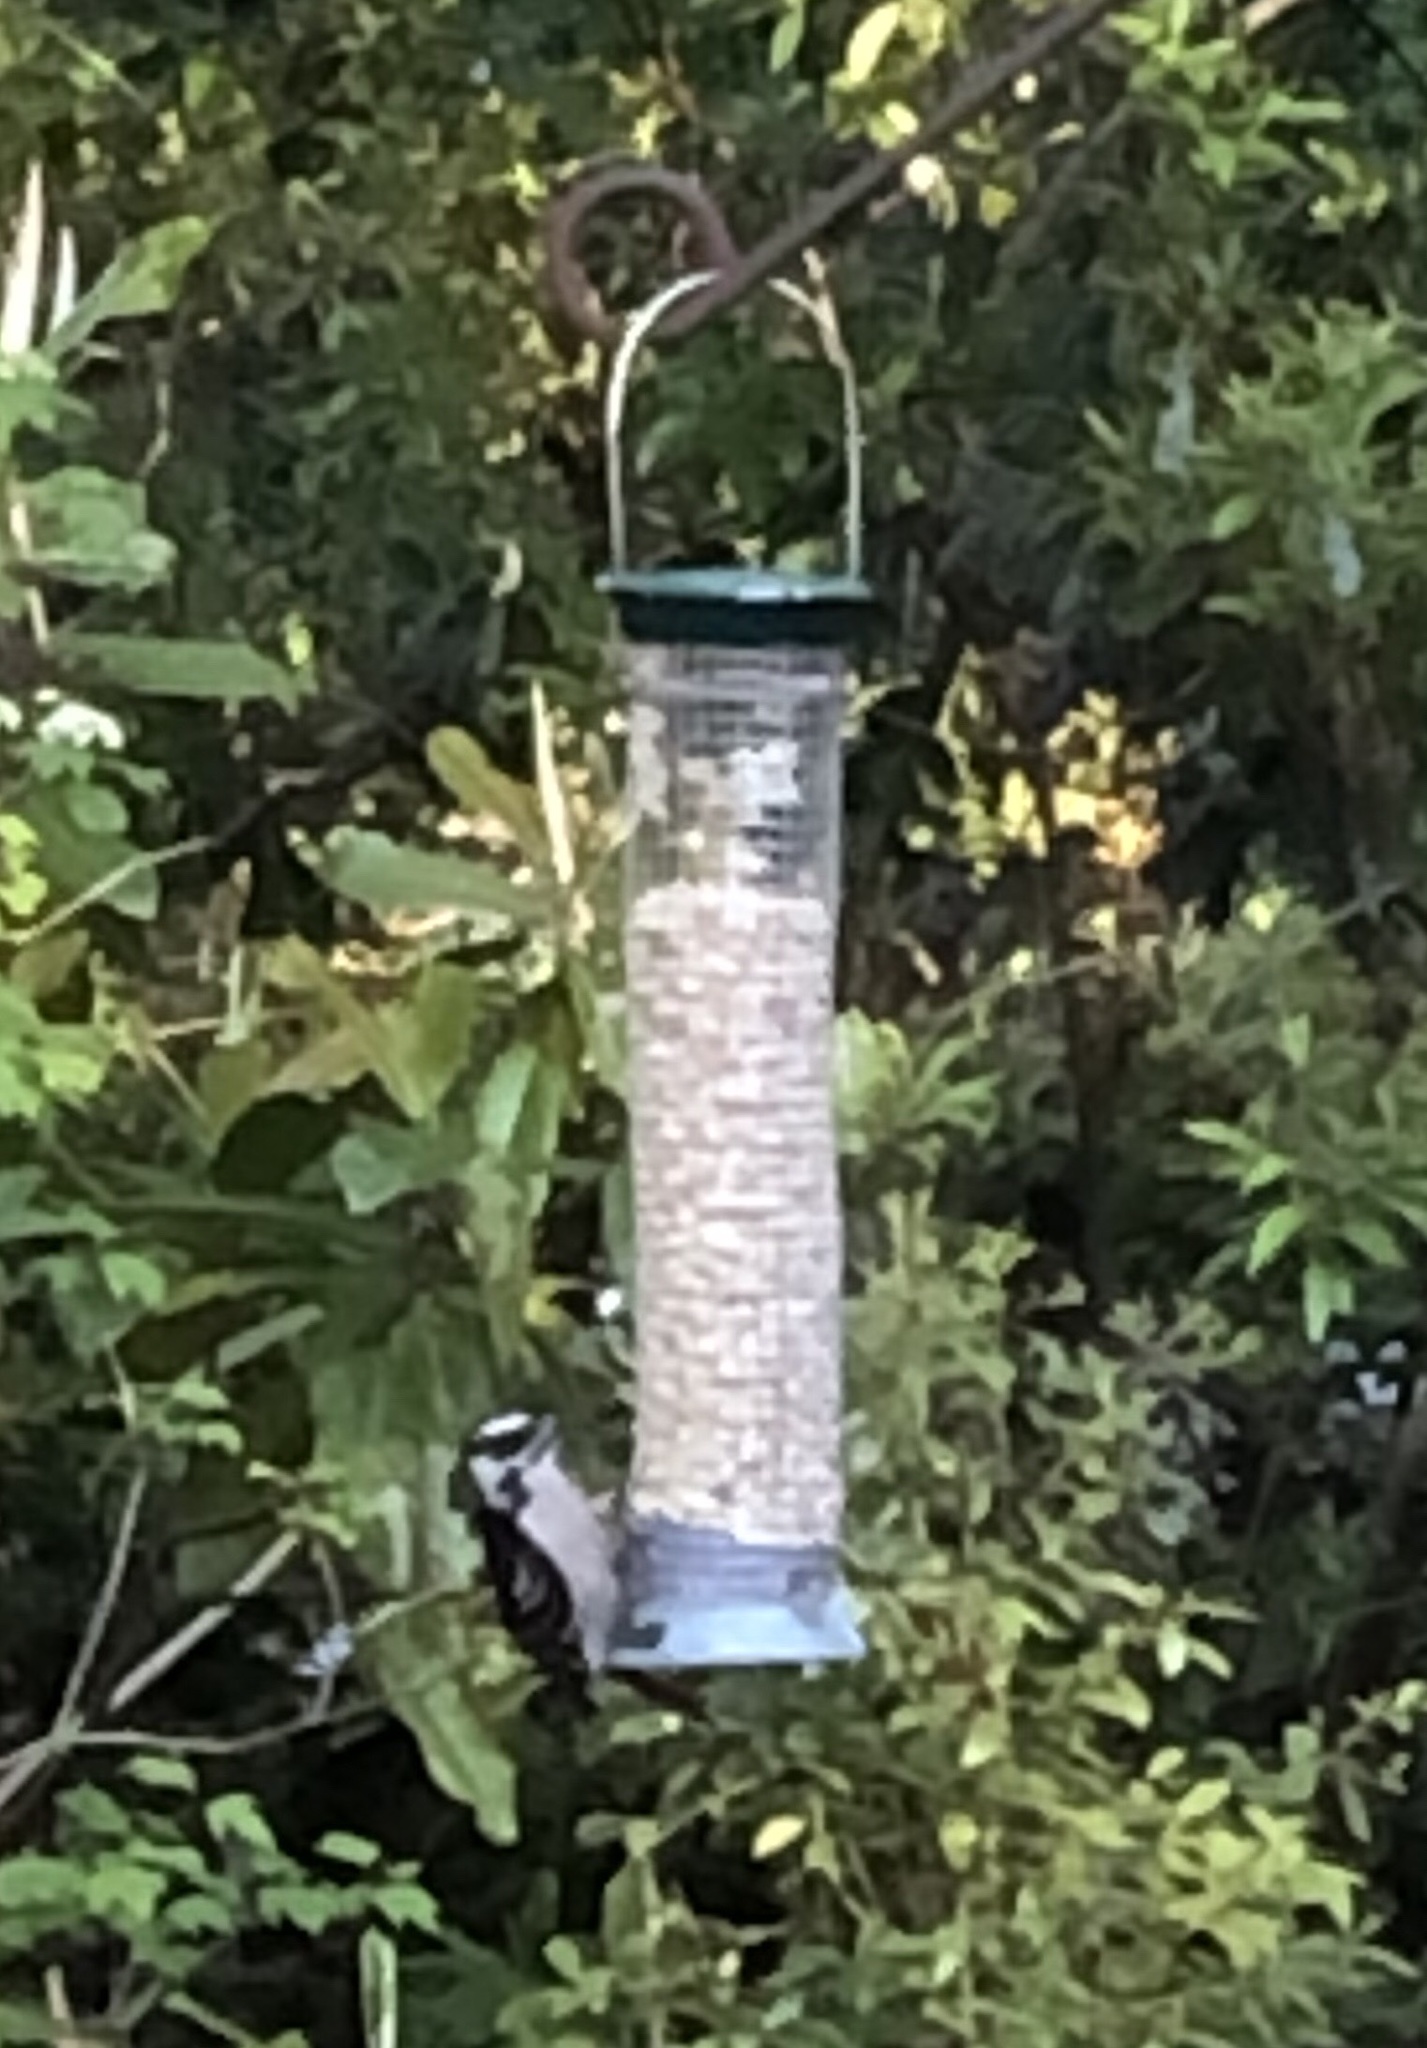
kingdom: Animalia
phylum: Chordata
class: Aves
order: Piciformes
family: Picidae
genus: Dryobates
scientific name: Dryobates pubescens
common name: Downy woodpecker
